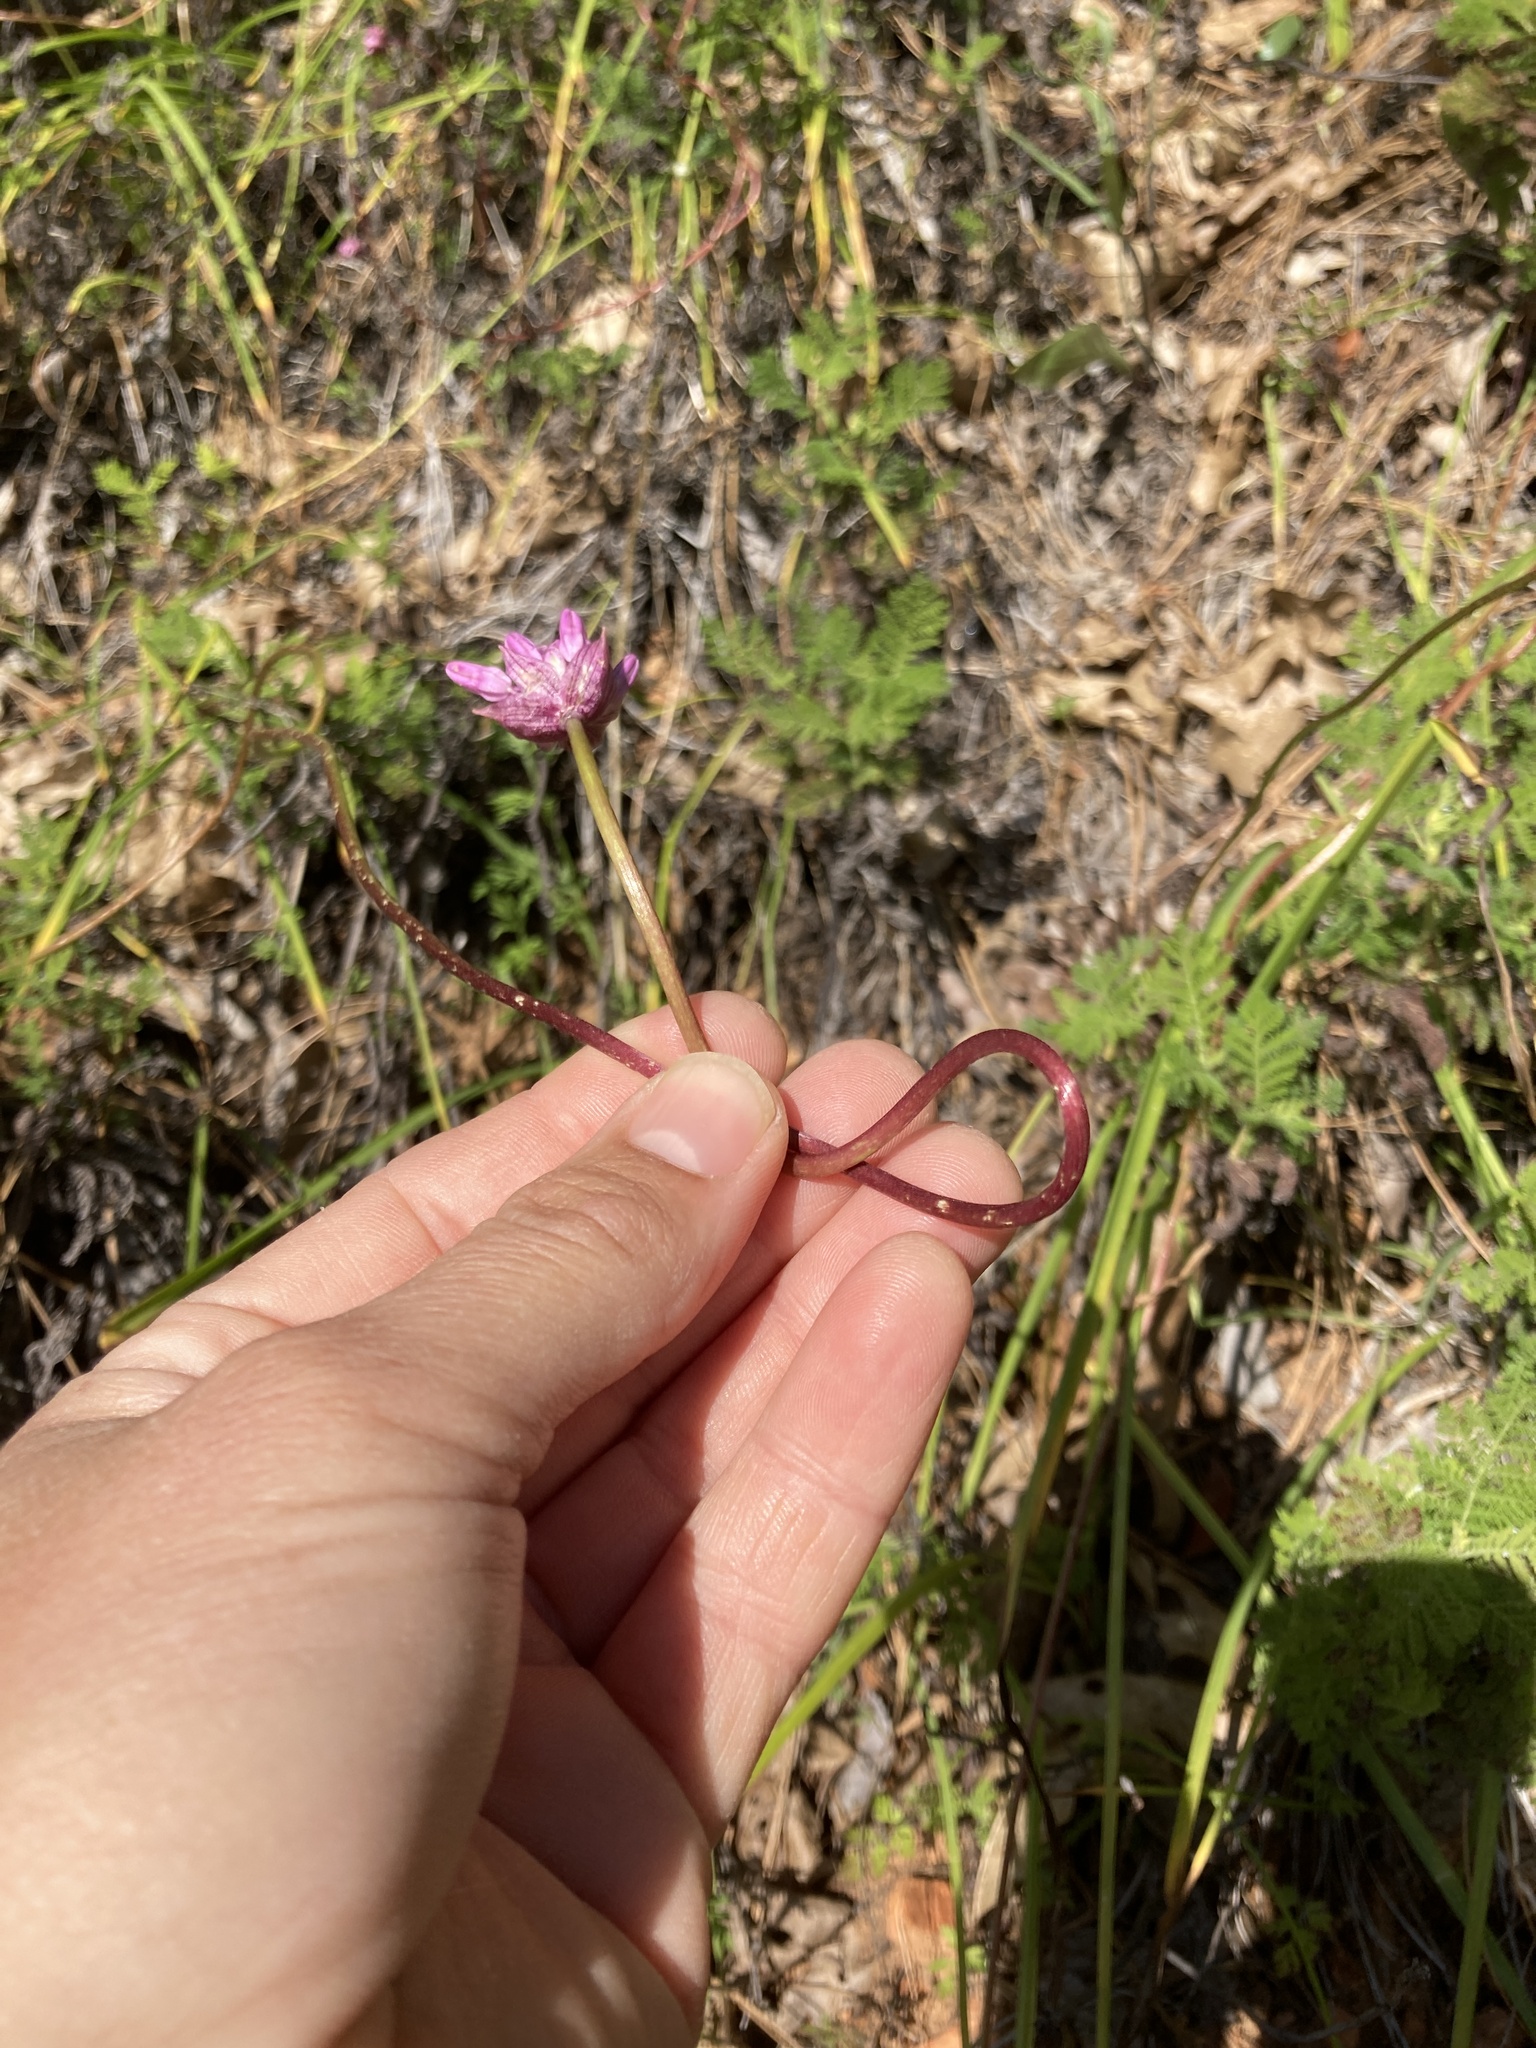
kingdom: Plantae
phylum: Tracheophyta
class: Liliopsida
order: Asparagales
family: Asparagaceae
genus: Dichelostemma
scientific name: Dichelostemma volubile
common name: Trining brodiaea
